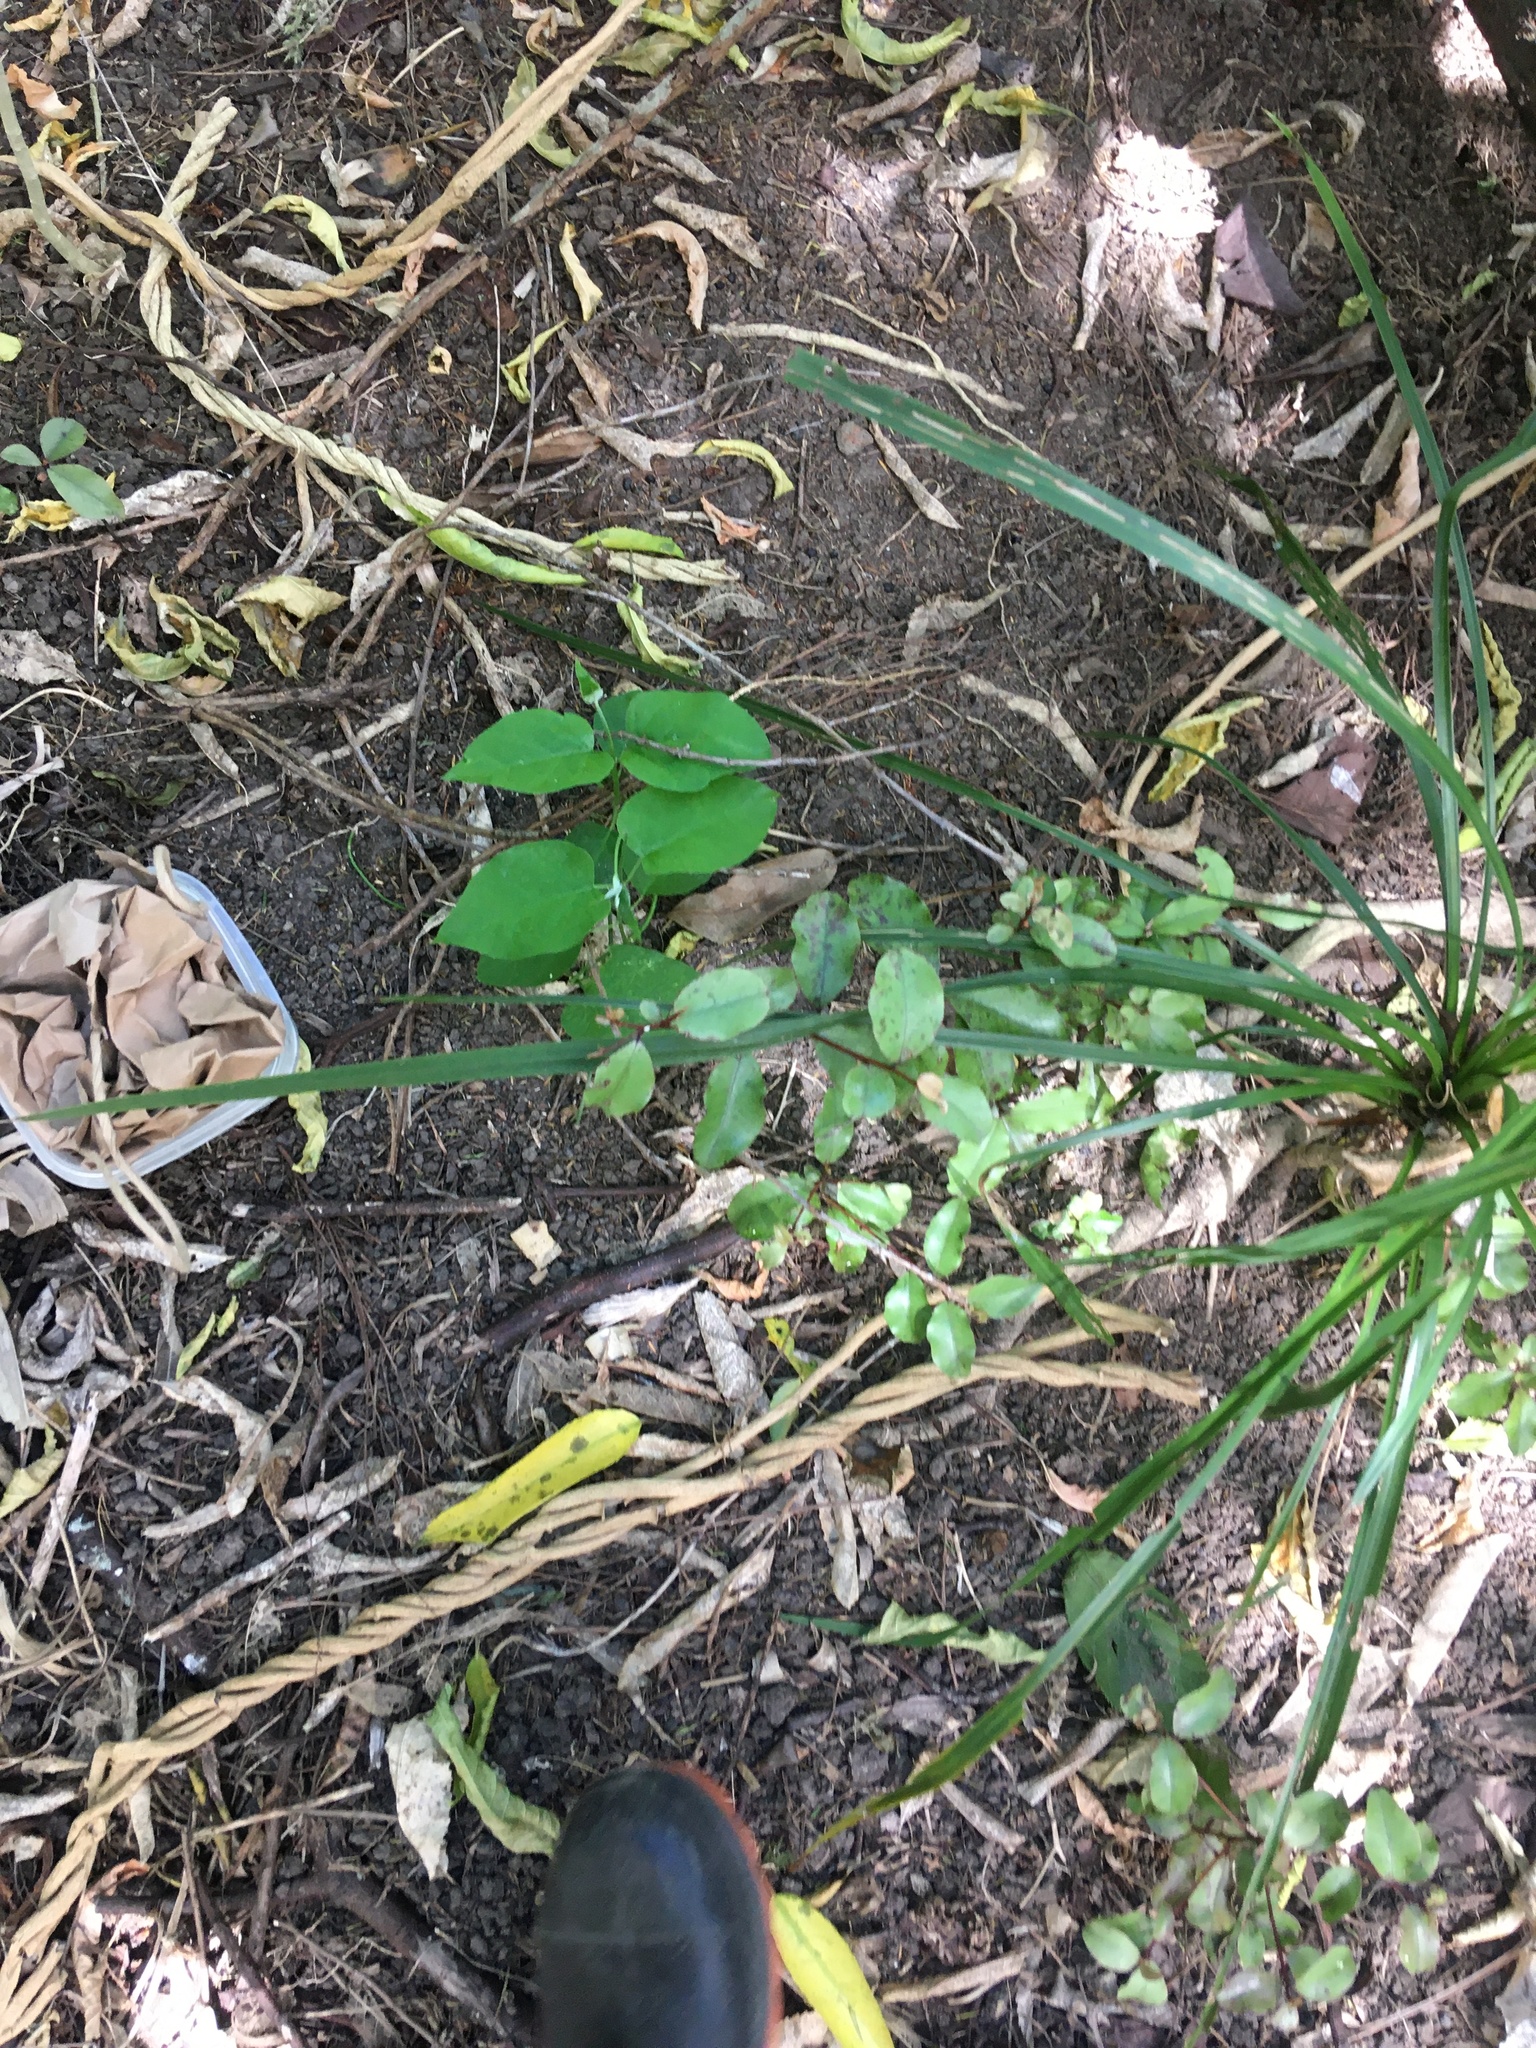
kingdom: Plantae
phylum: Tracheophyta
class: Magnoliopsida
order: Gentianales
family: Apocynaceae
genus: Araujia
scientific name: Araujia sericifera
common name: White bladderflower
